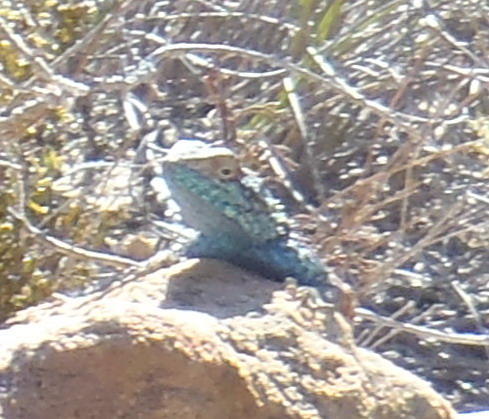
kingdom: Animalia
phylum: Chordata
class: Squamata
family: Agamidae
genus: Agama
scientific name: Agama atra
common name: Southern african rock agama
